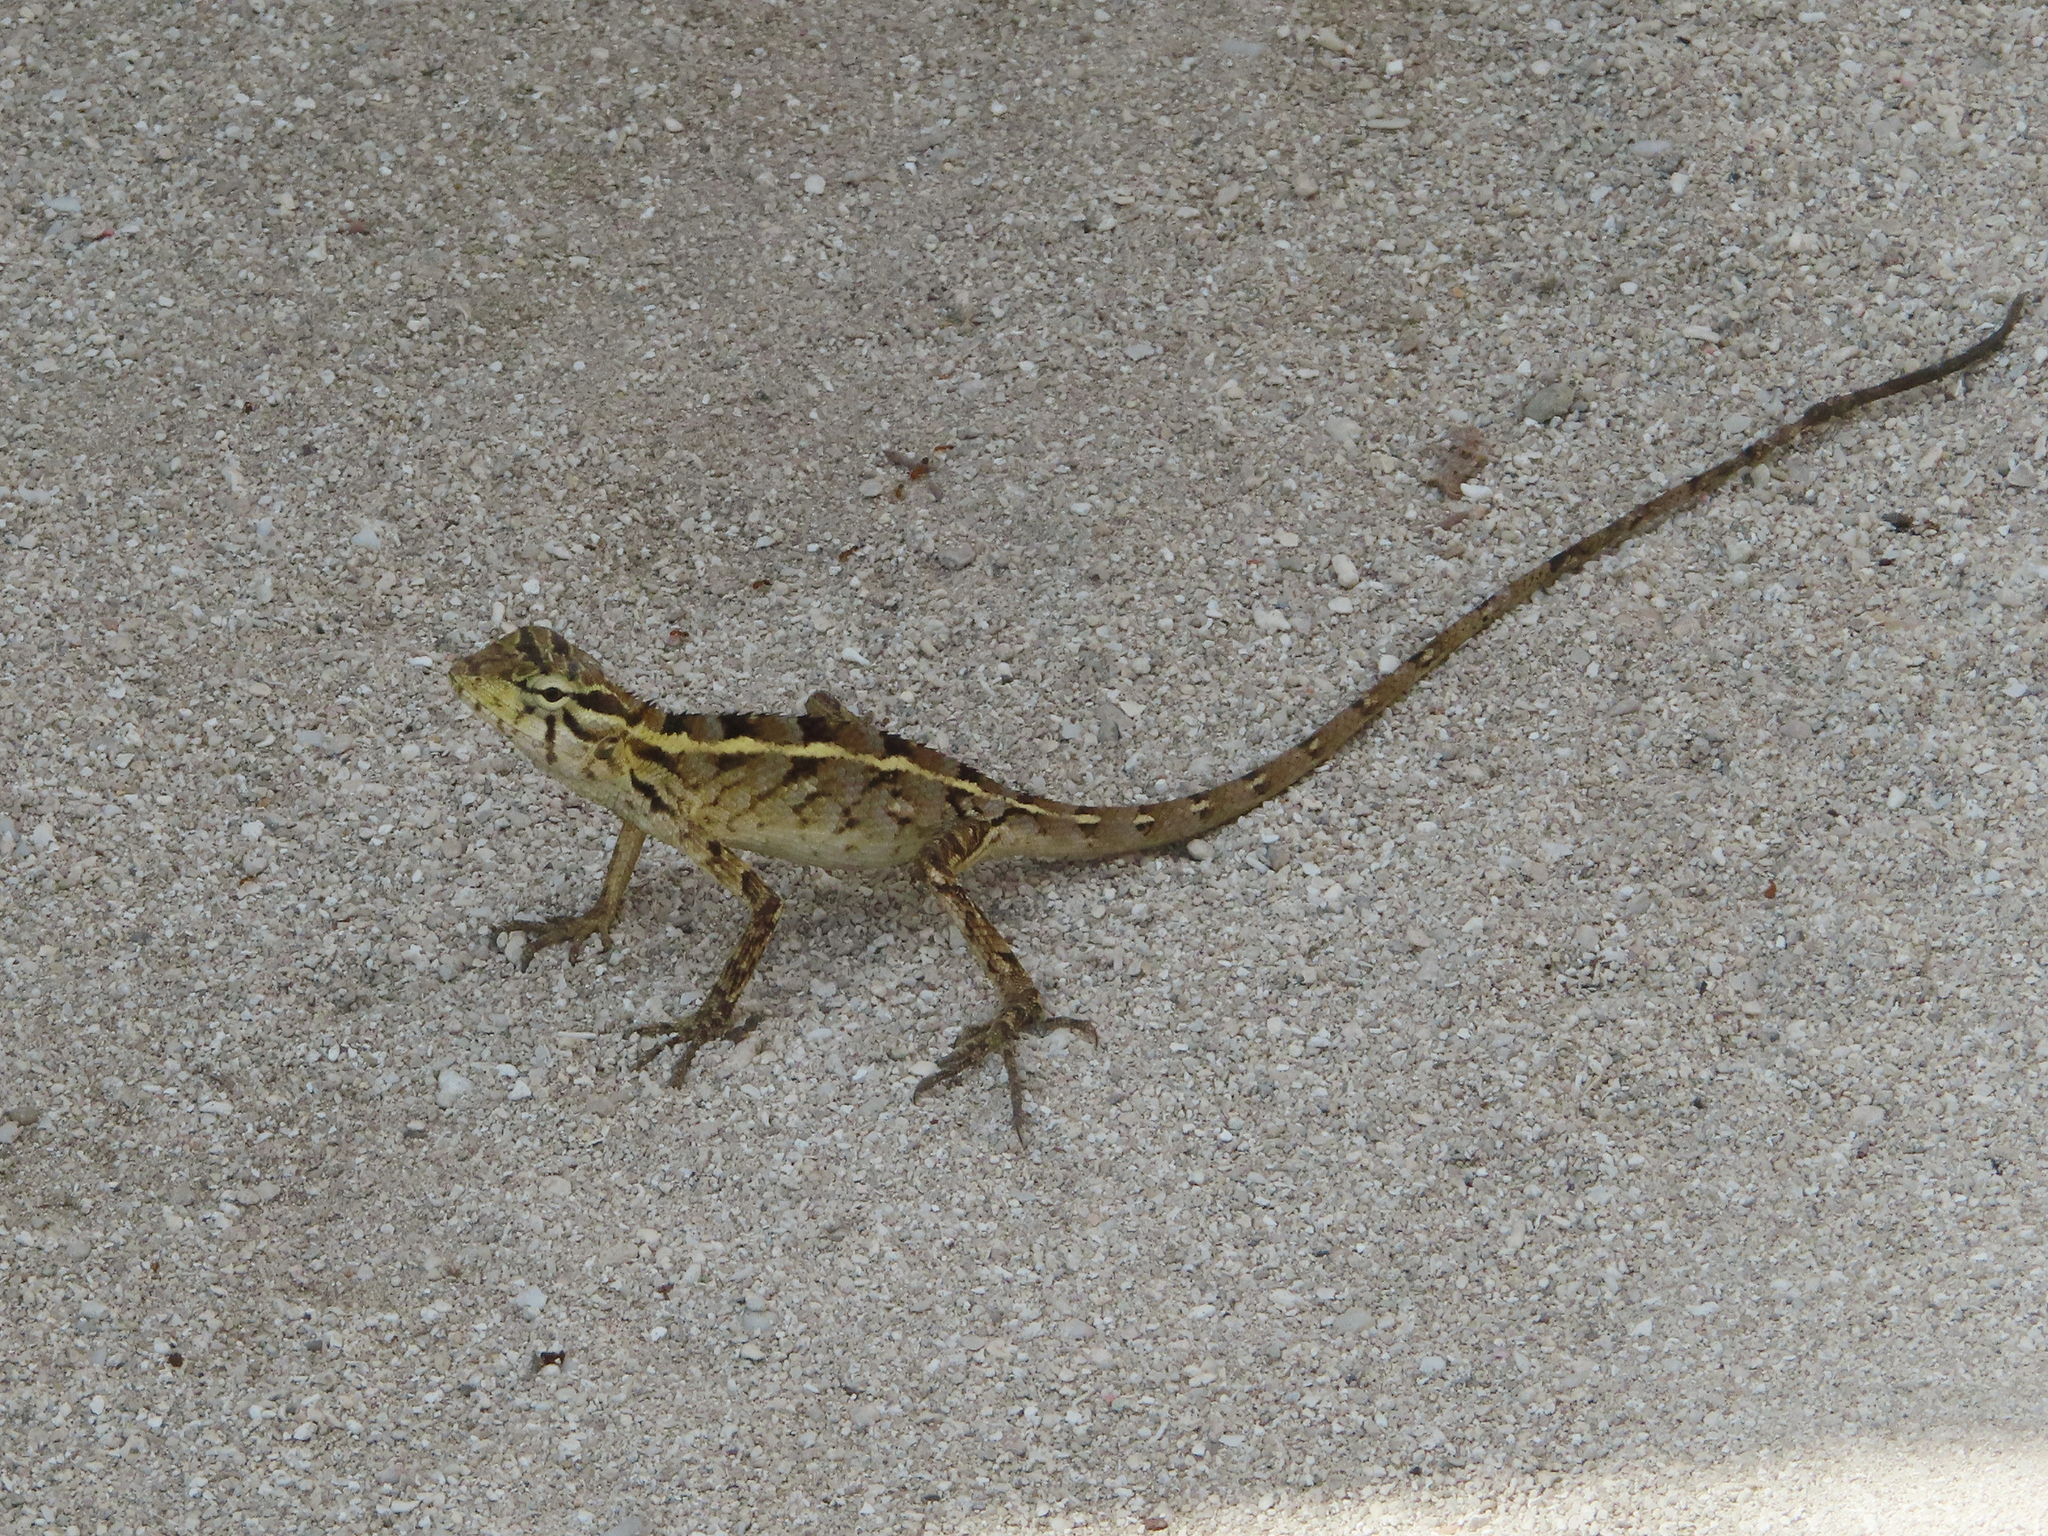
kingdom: Animalia
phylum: Chordata
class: Squamata
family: Agamidae
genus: Calotes
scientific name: Calotes versicolor
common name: Oriental garden lizard
